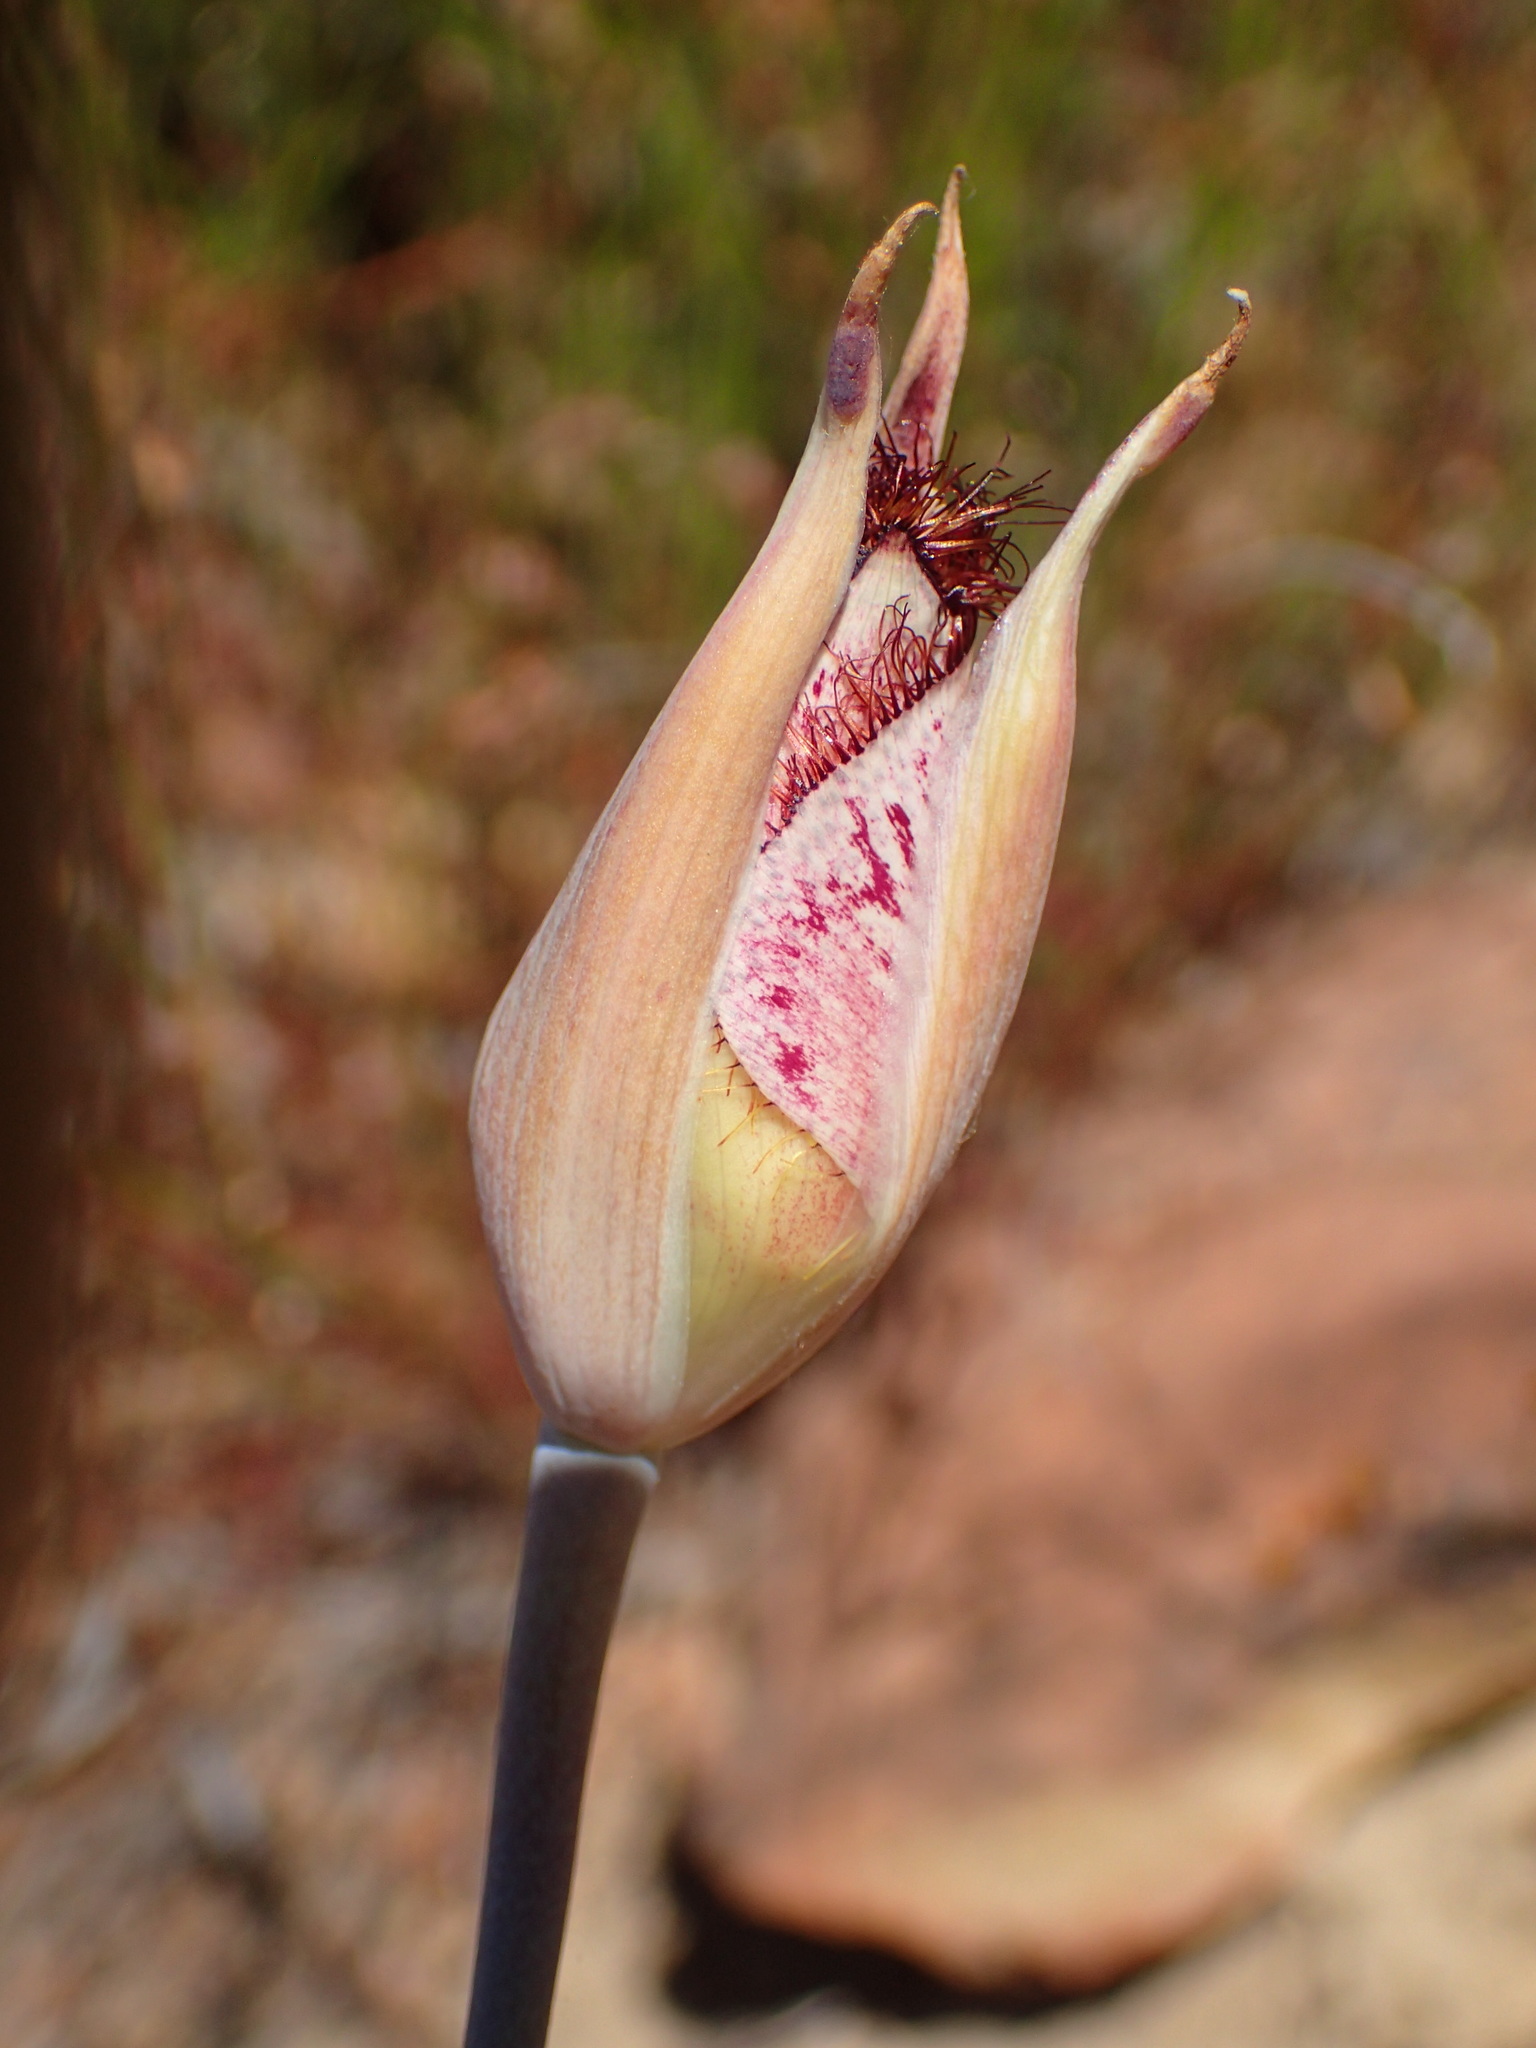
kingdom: Plantae
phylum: Tracheophyta
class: Liliopsida
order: Liliales
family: Liliaceae
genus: Calochortus
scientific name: Calochortus fimbriatus
